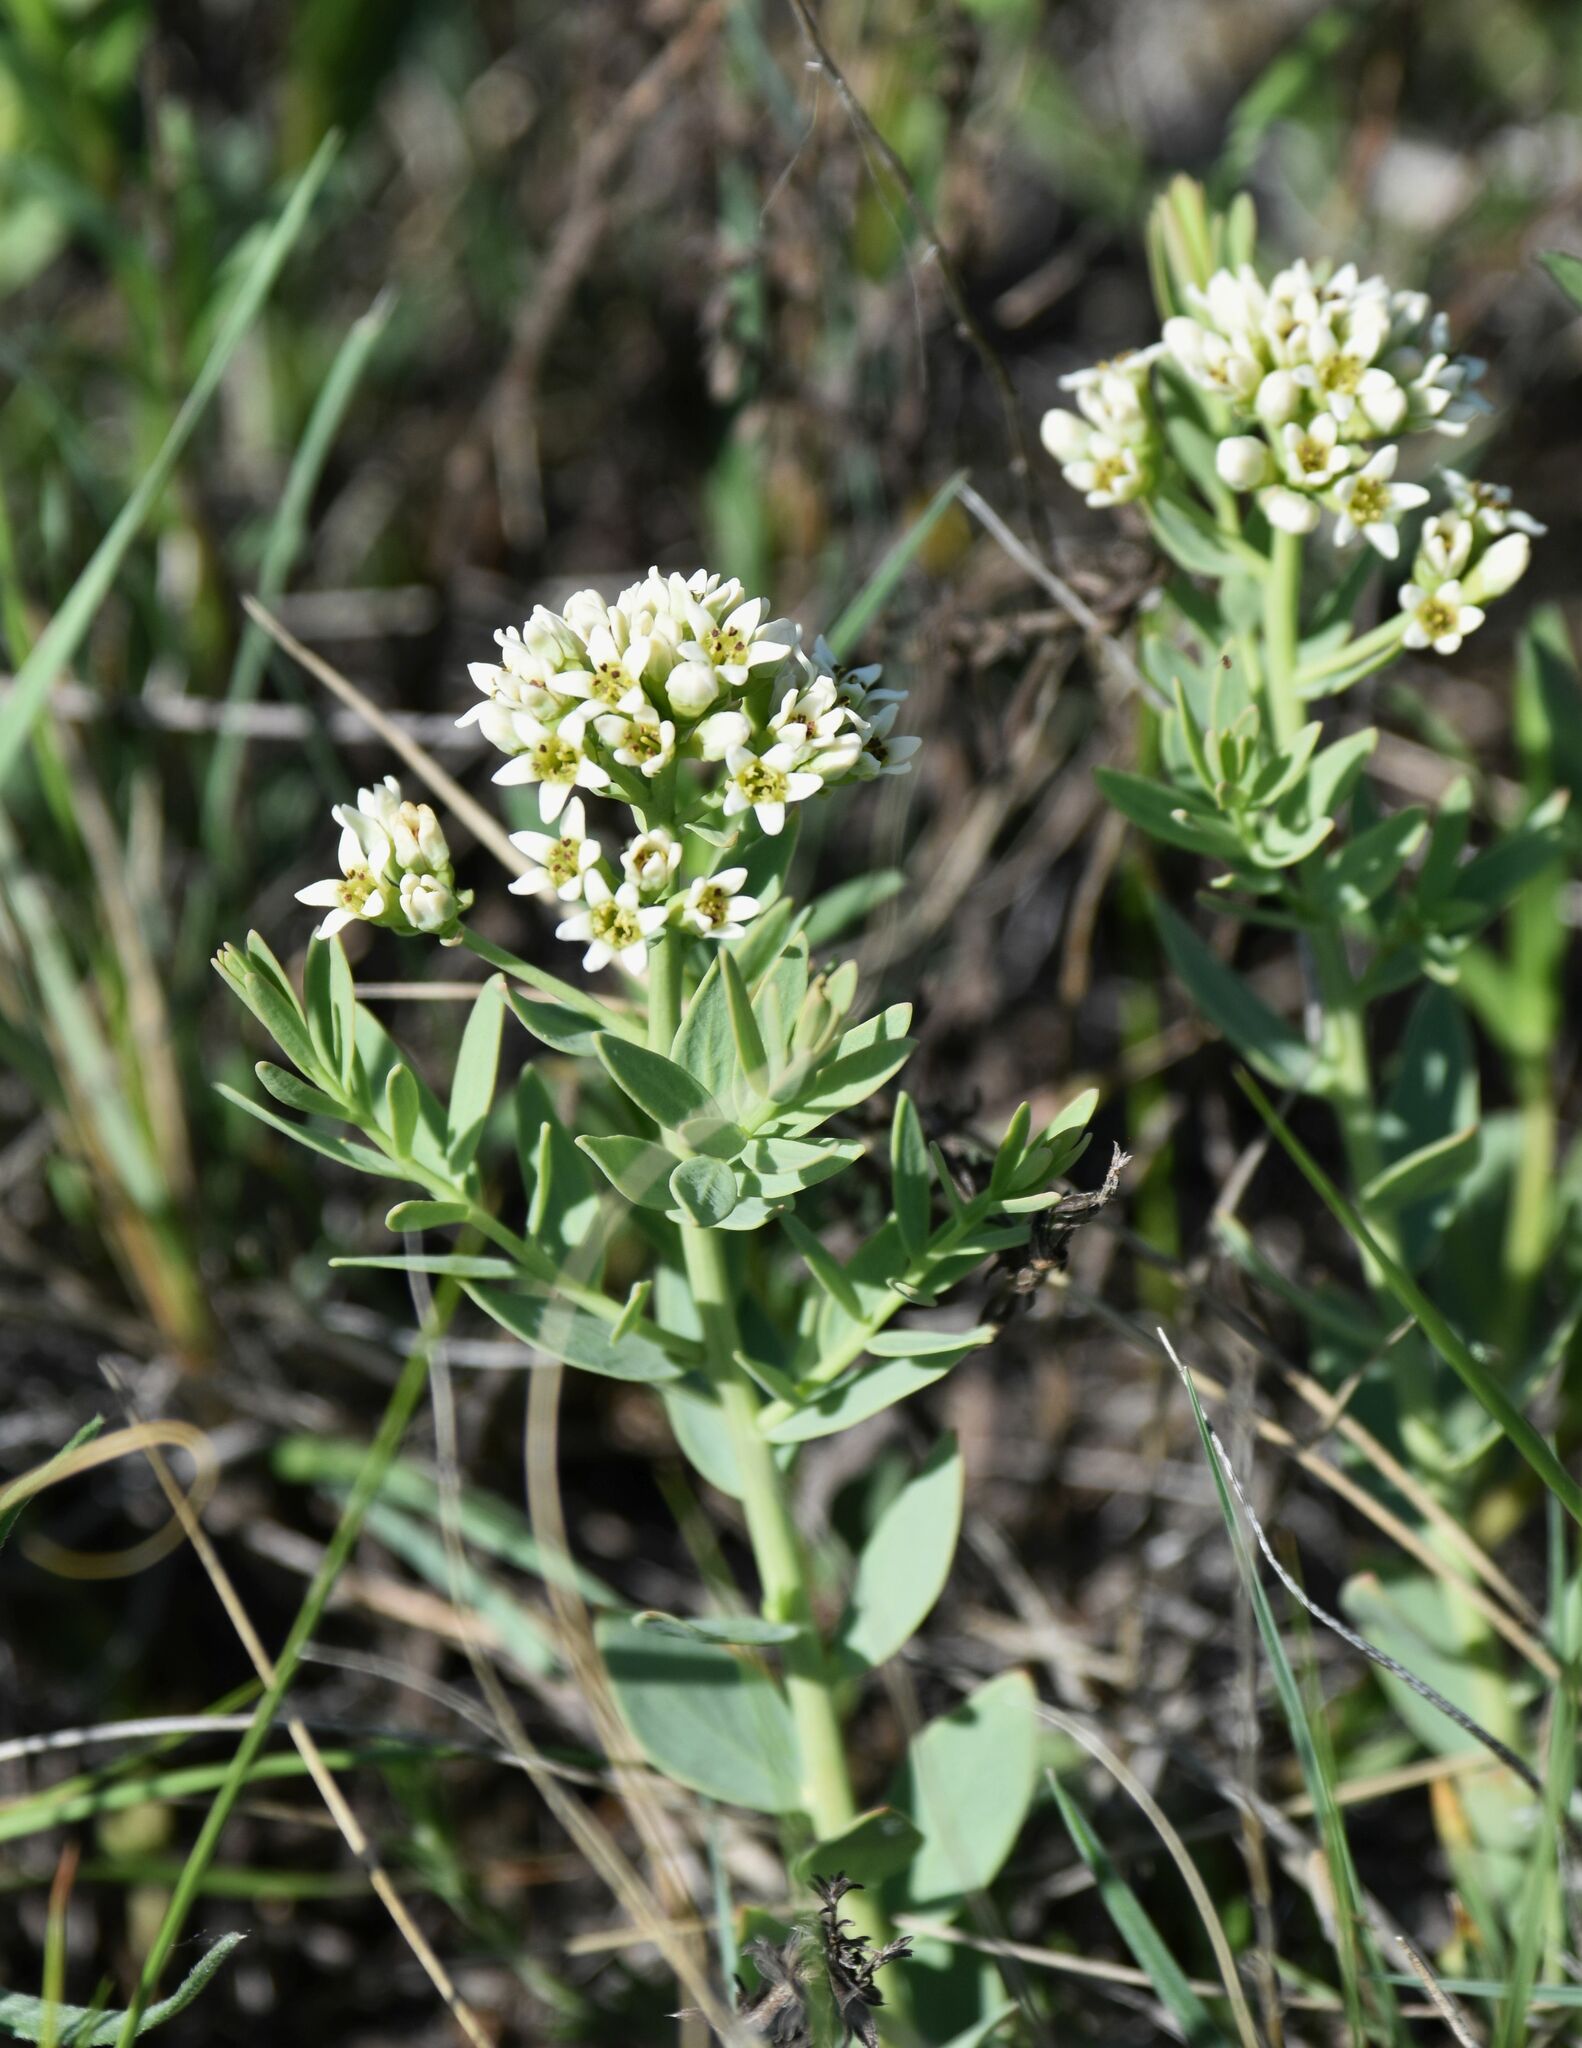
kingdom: Plantae
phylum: Tracheophyta
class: Magnoliopsida
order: Santalales
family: Comandraceae
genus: Comandra
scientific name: Comandra umbellata
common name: Bastard toadflax
